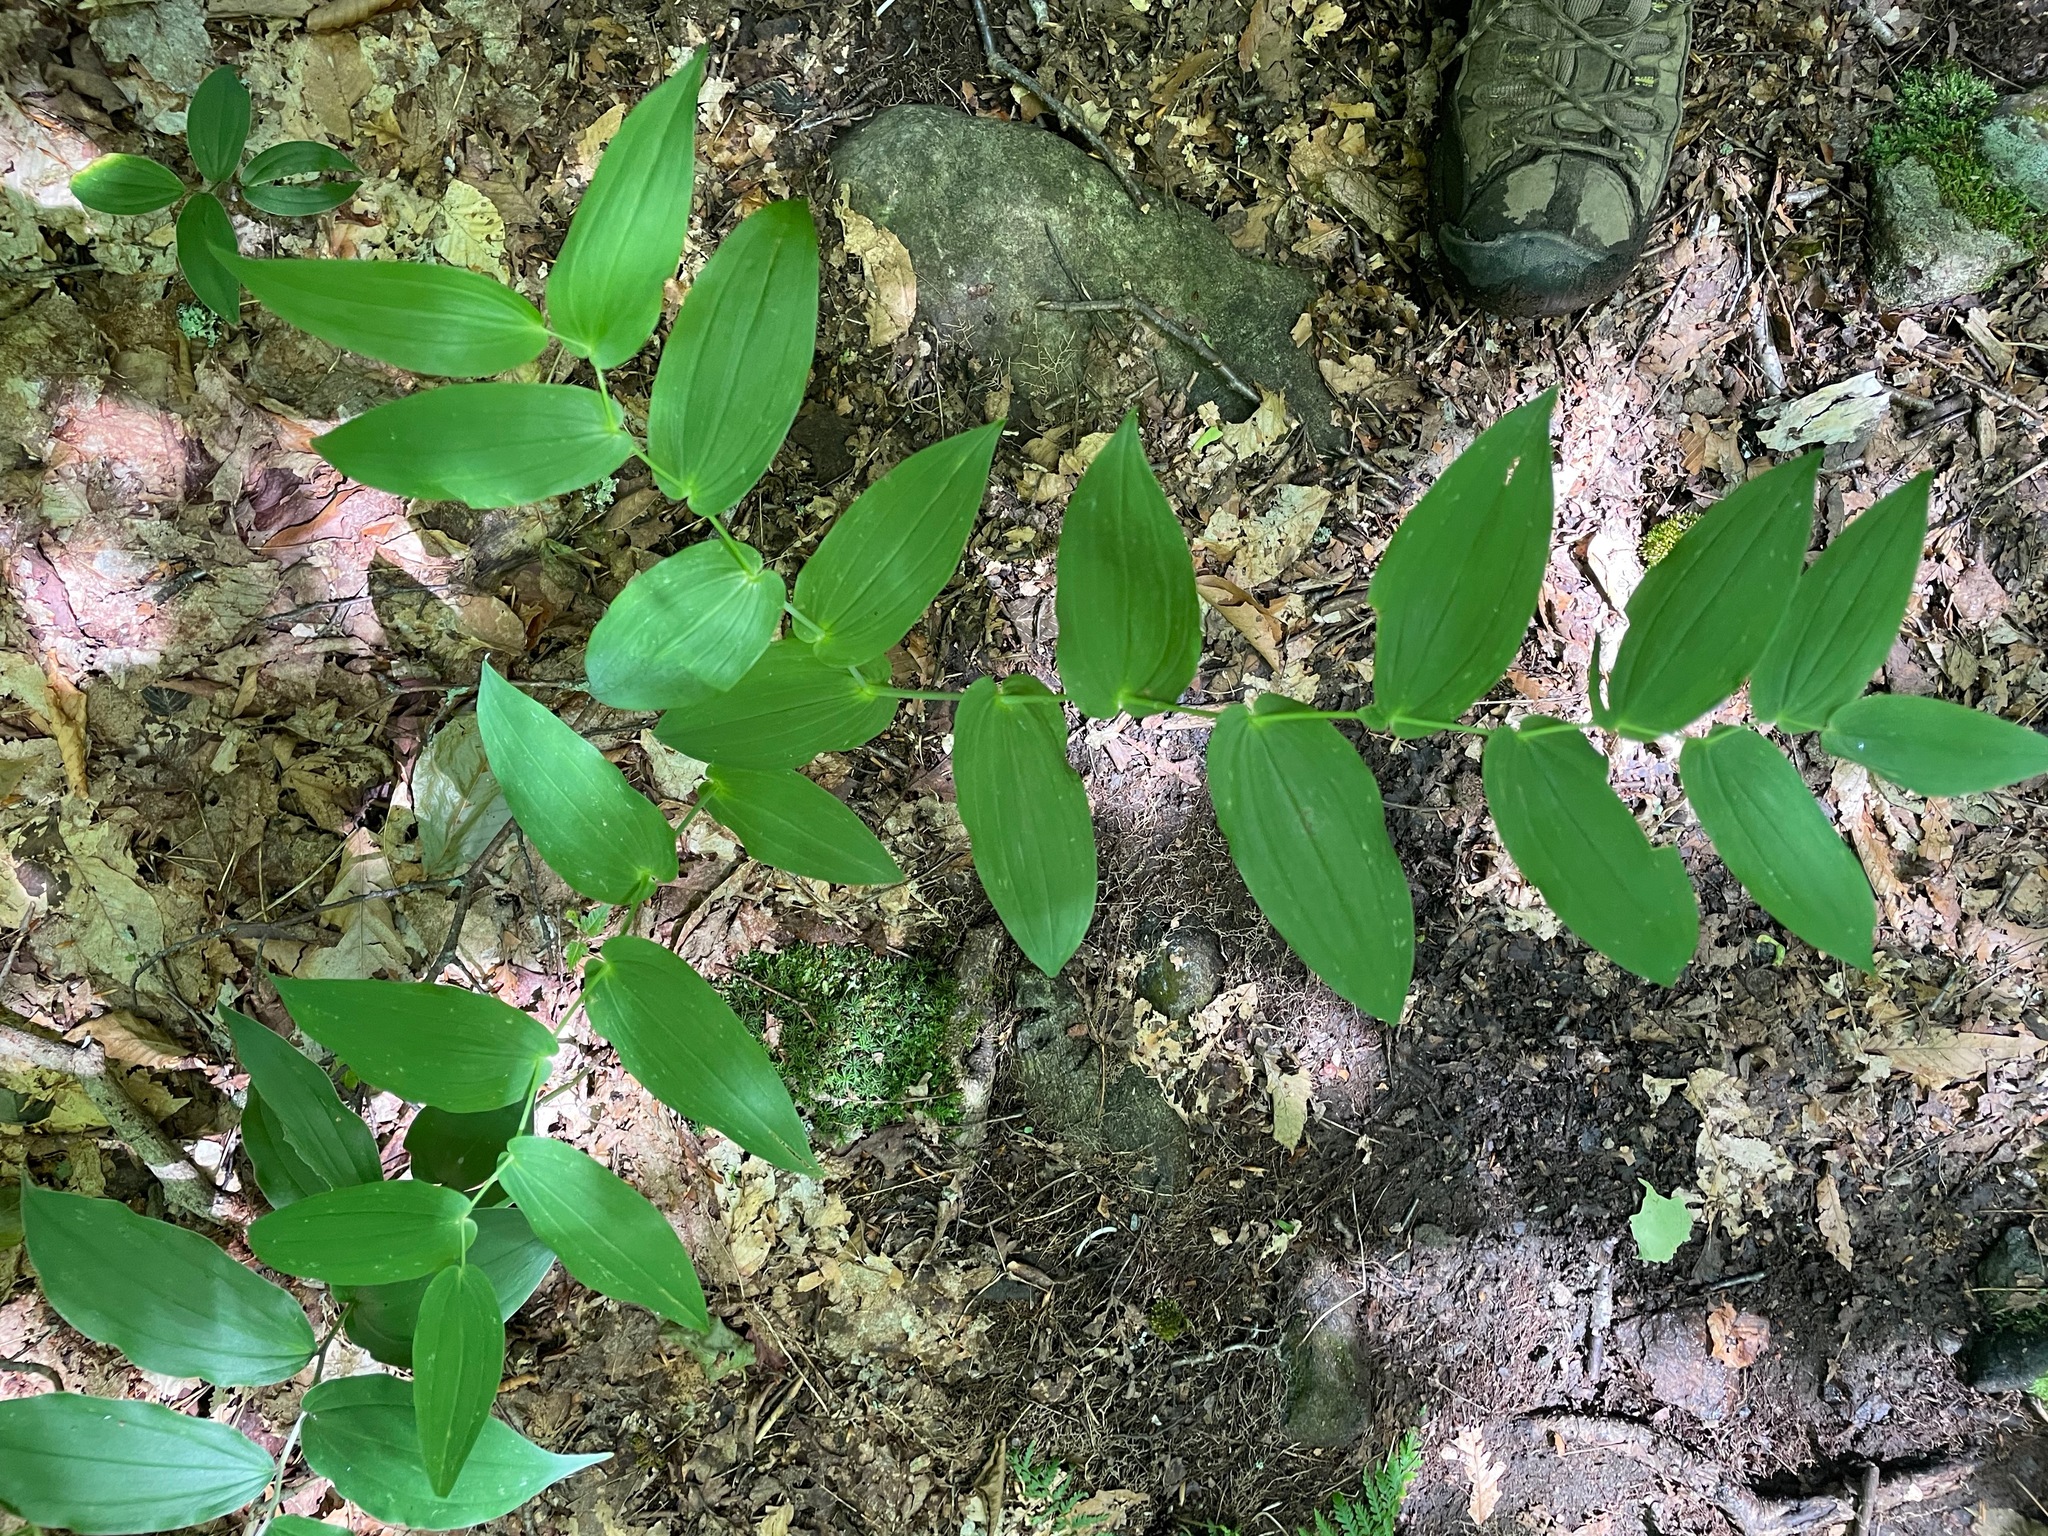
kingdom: Plantae
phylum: Tracheophyta
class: Liliopsida
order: Liliales
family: Liliaceae
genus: Streptopus
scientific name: Streptopus amplexifolius
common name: Clasp twisted stalk
